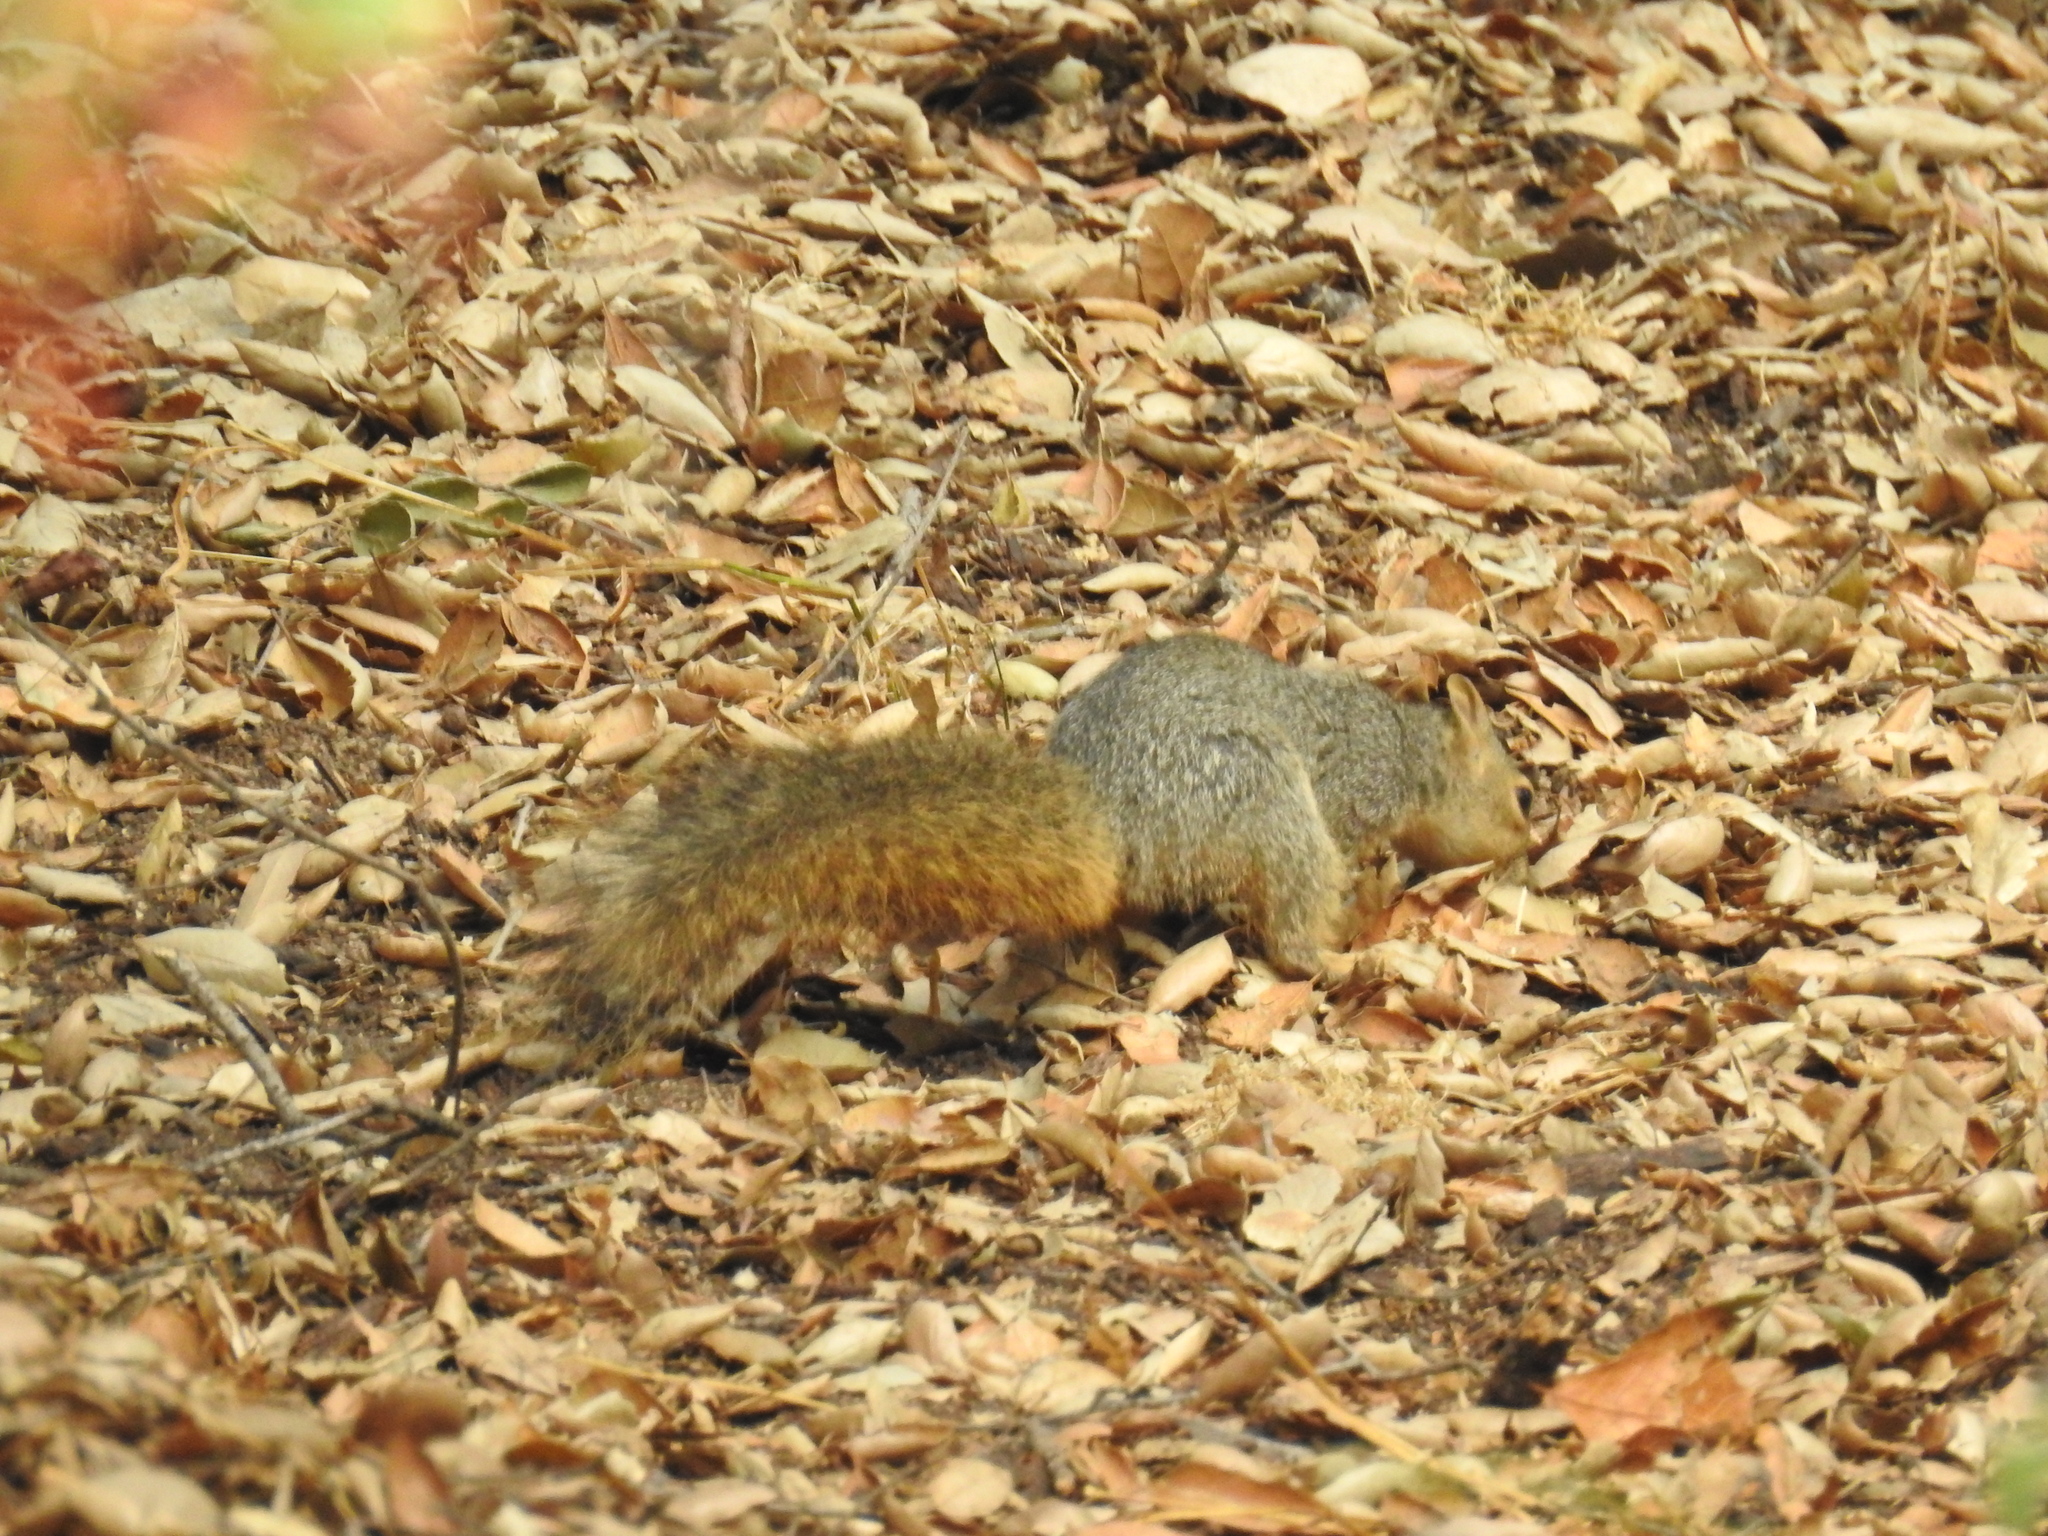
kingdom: Animalia
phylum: Chordata
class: Mammalia
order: Rodentia
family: Sciuridae
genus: Sciurus
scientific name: Sciurus niger
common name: Fox squirrel
